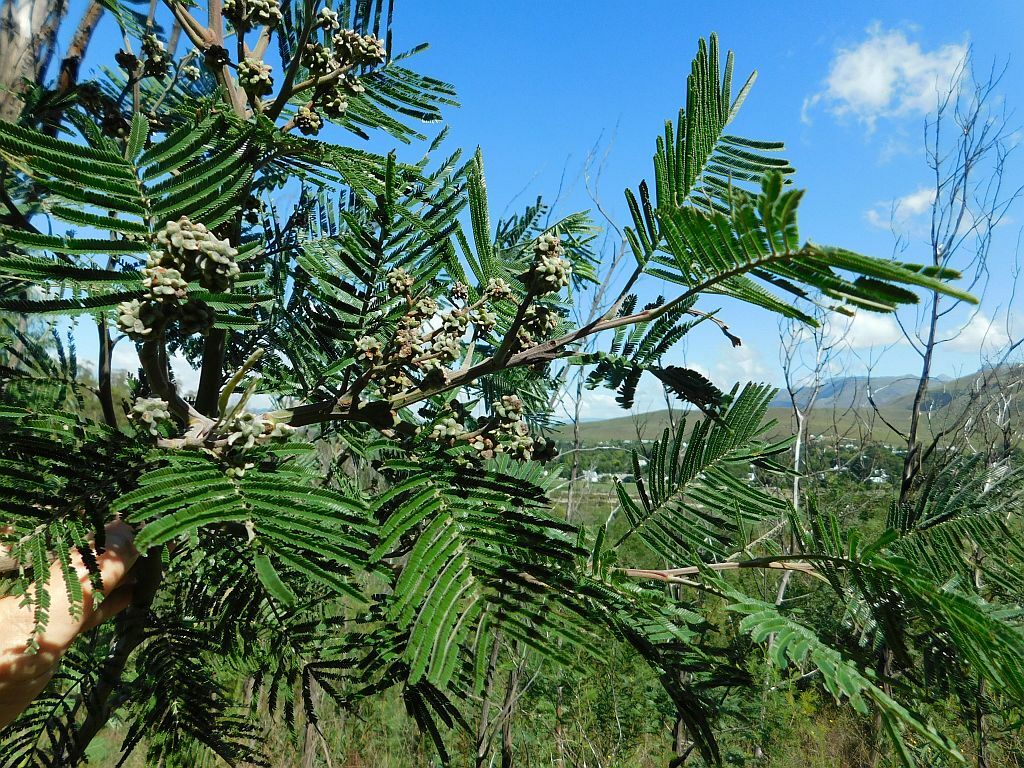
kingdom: Animalia
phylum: Arthropoda
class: Insecta
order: Diptera
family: Cecidomyiidae
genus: Dasineura
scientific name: Dasineura rubiformis
